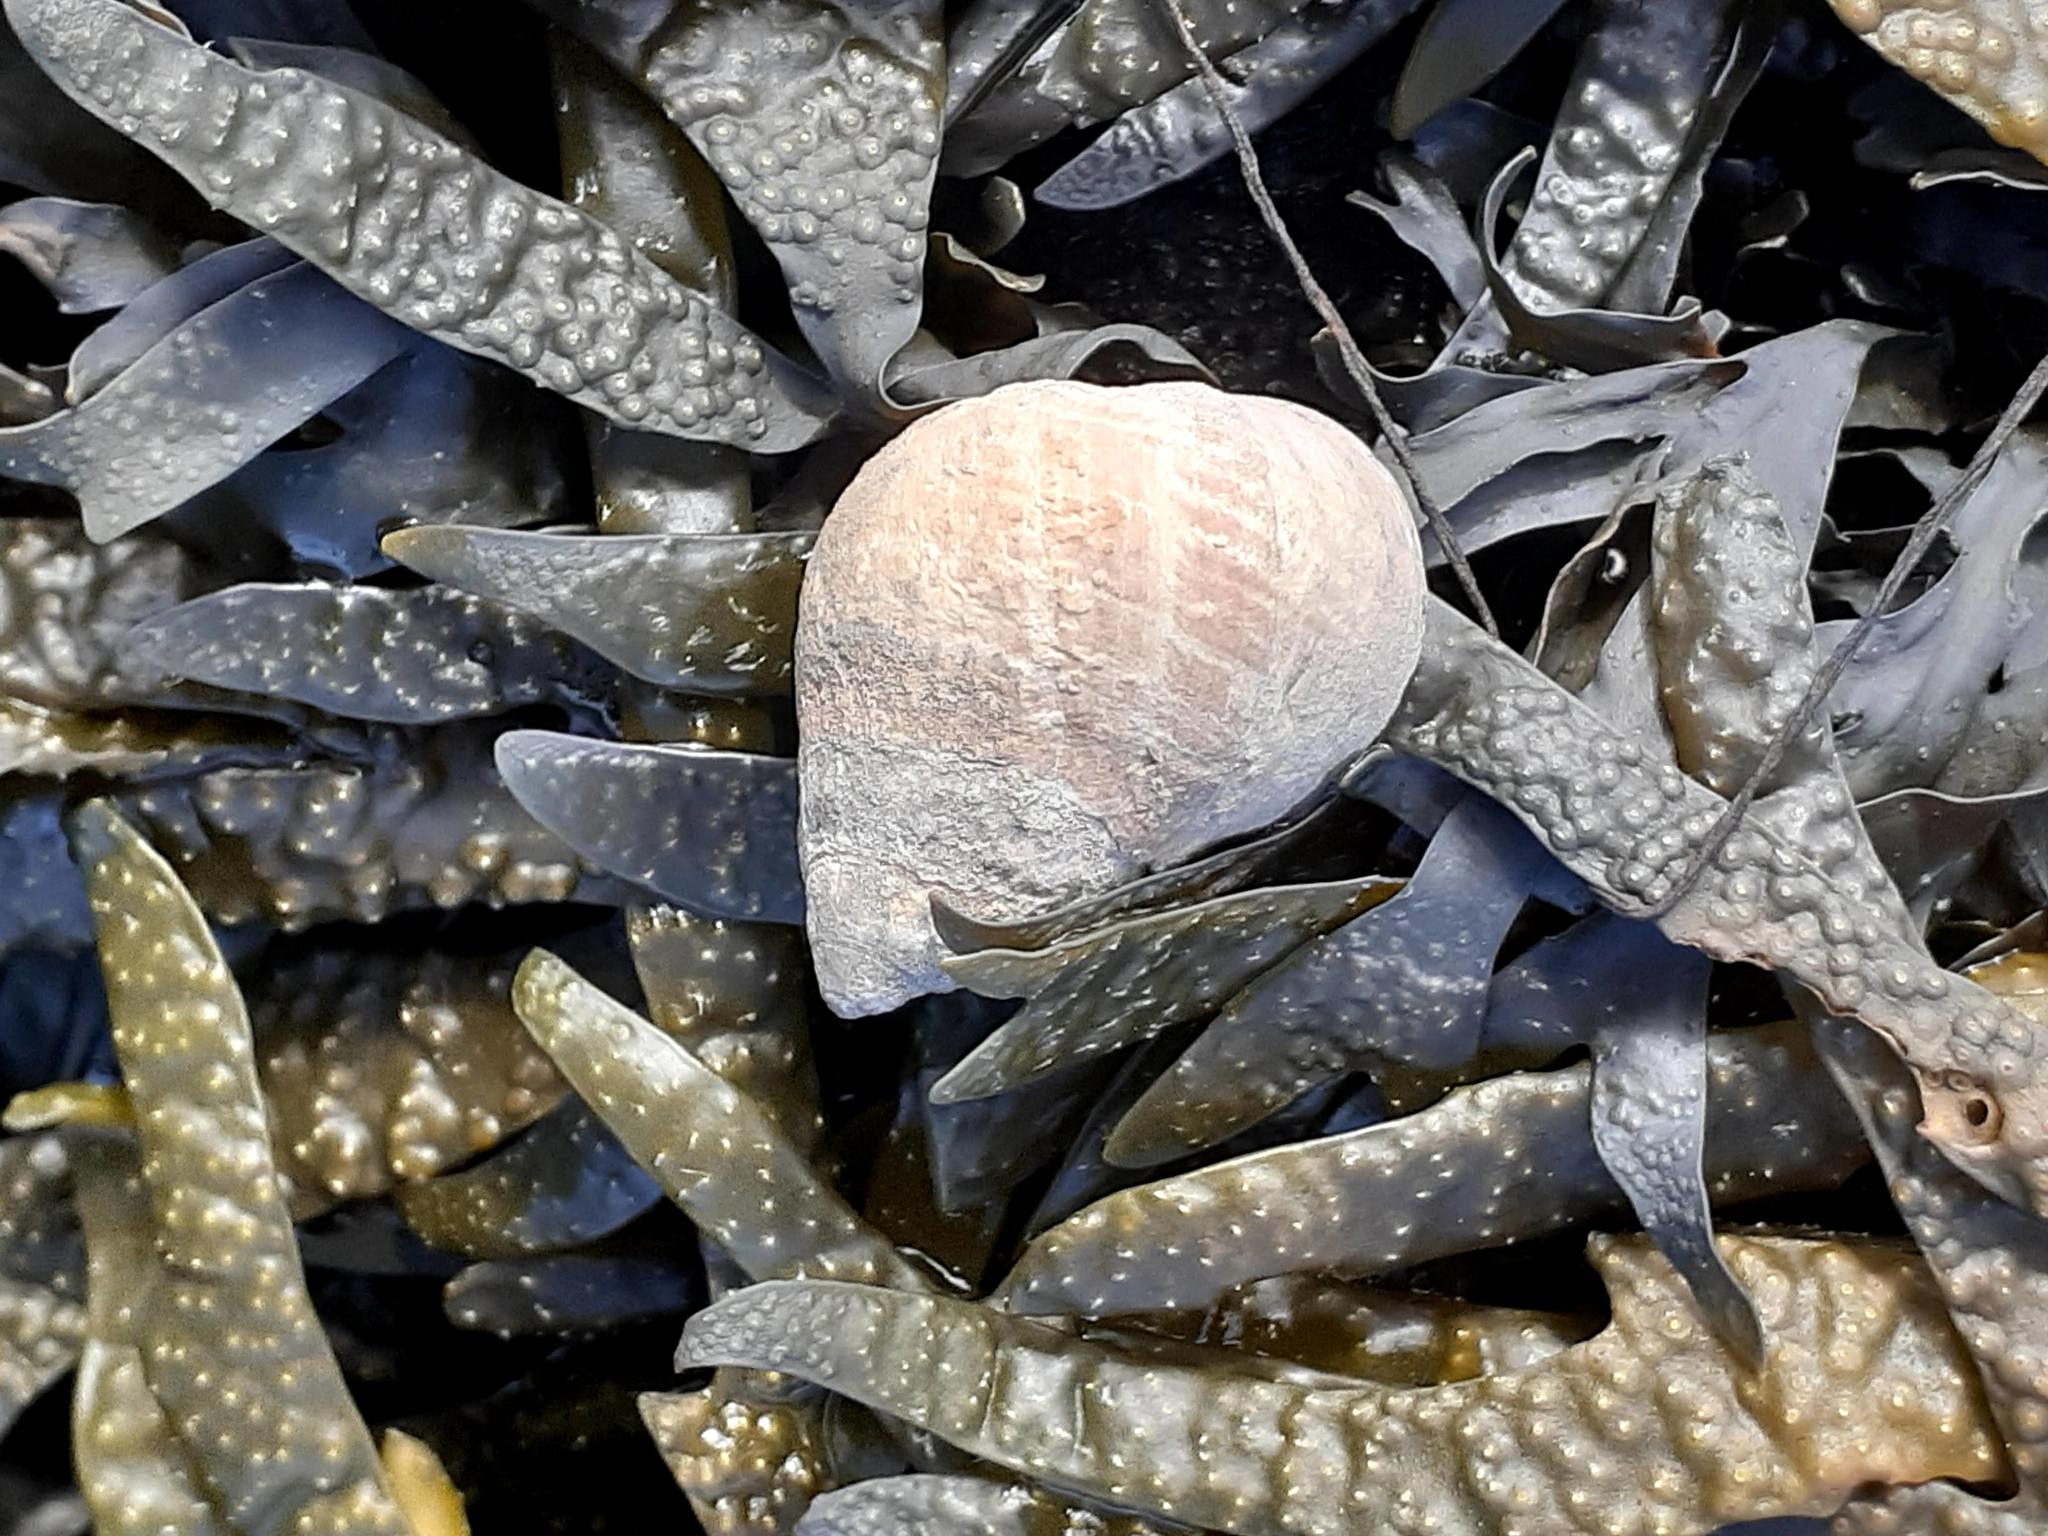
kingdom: Animalia
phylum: Mollusca
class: Gastropoda
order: Littorinimorpha
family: Littorinidae
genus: Littorina
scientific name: Littorina littorea
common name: Common periwinkle
